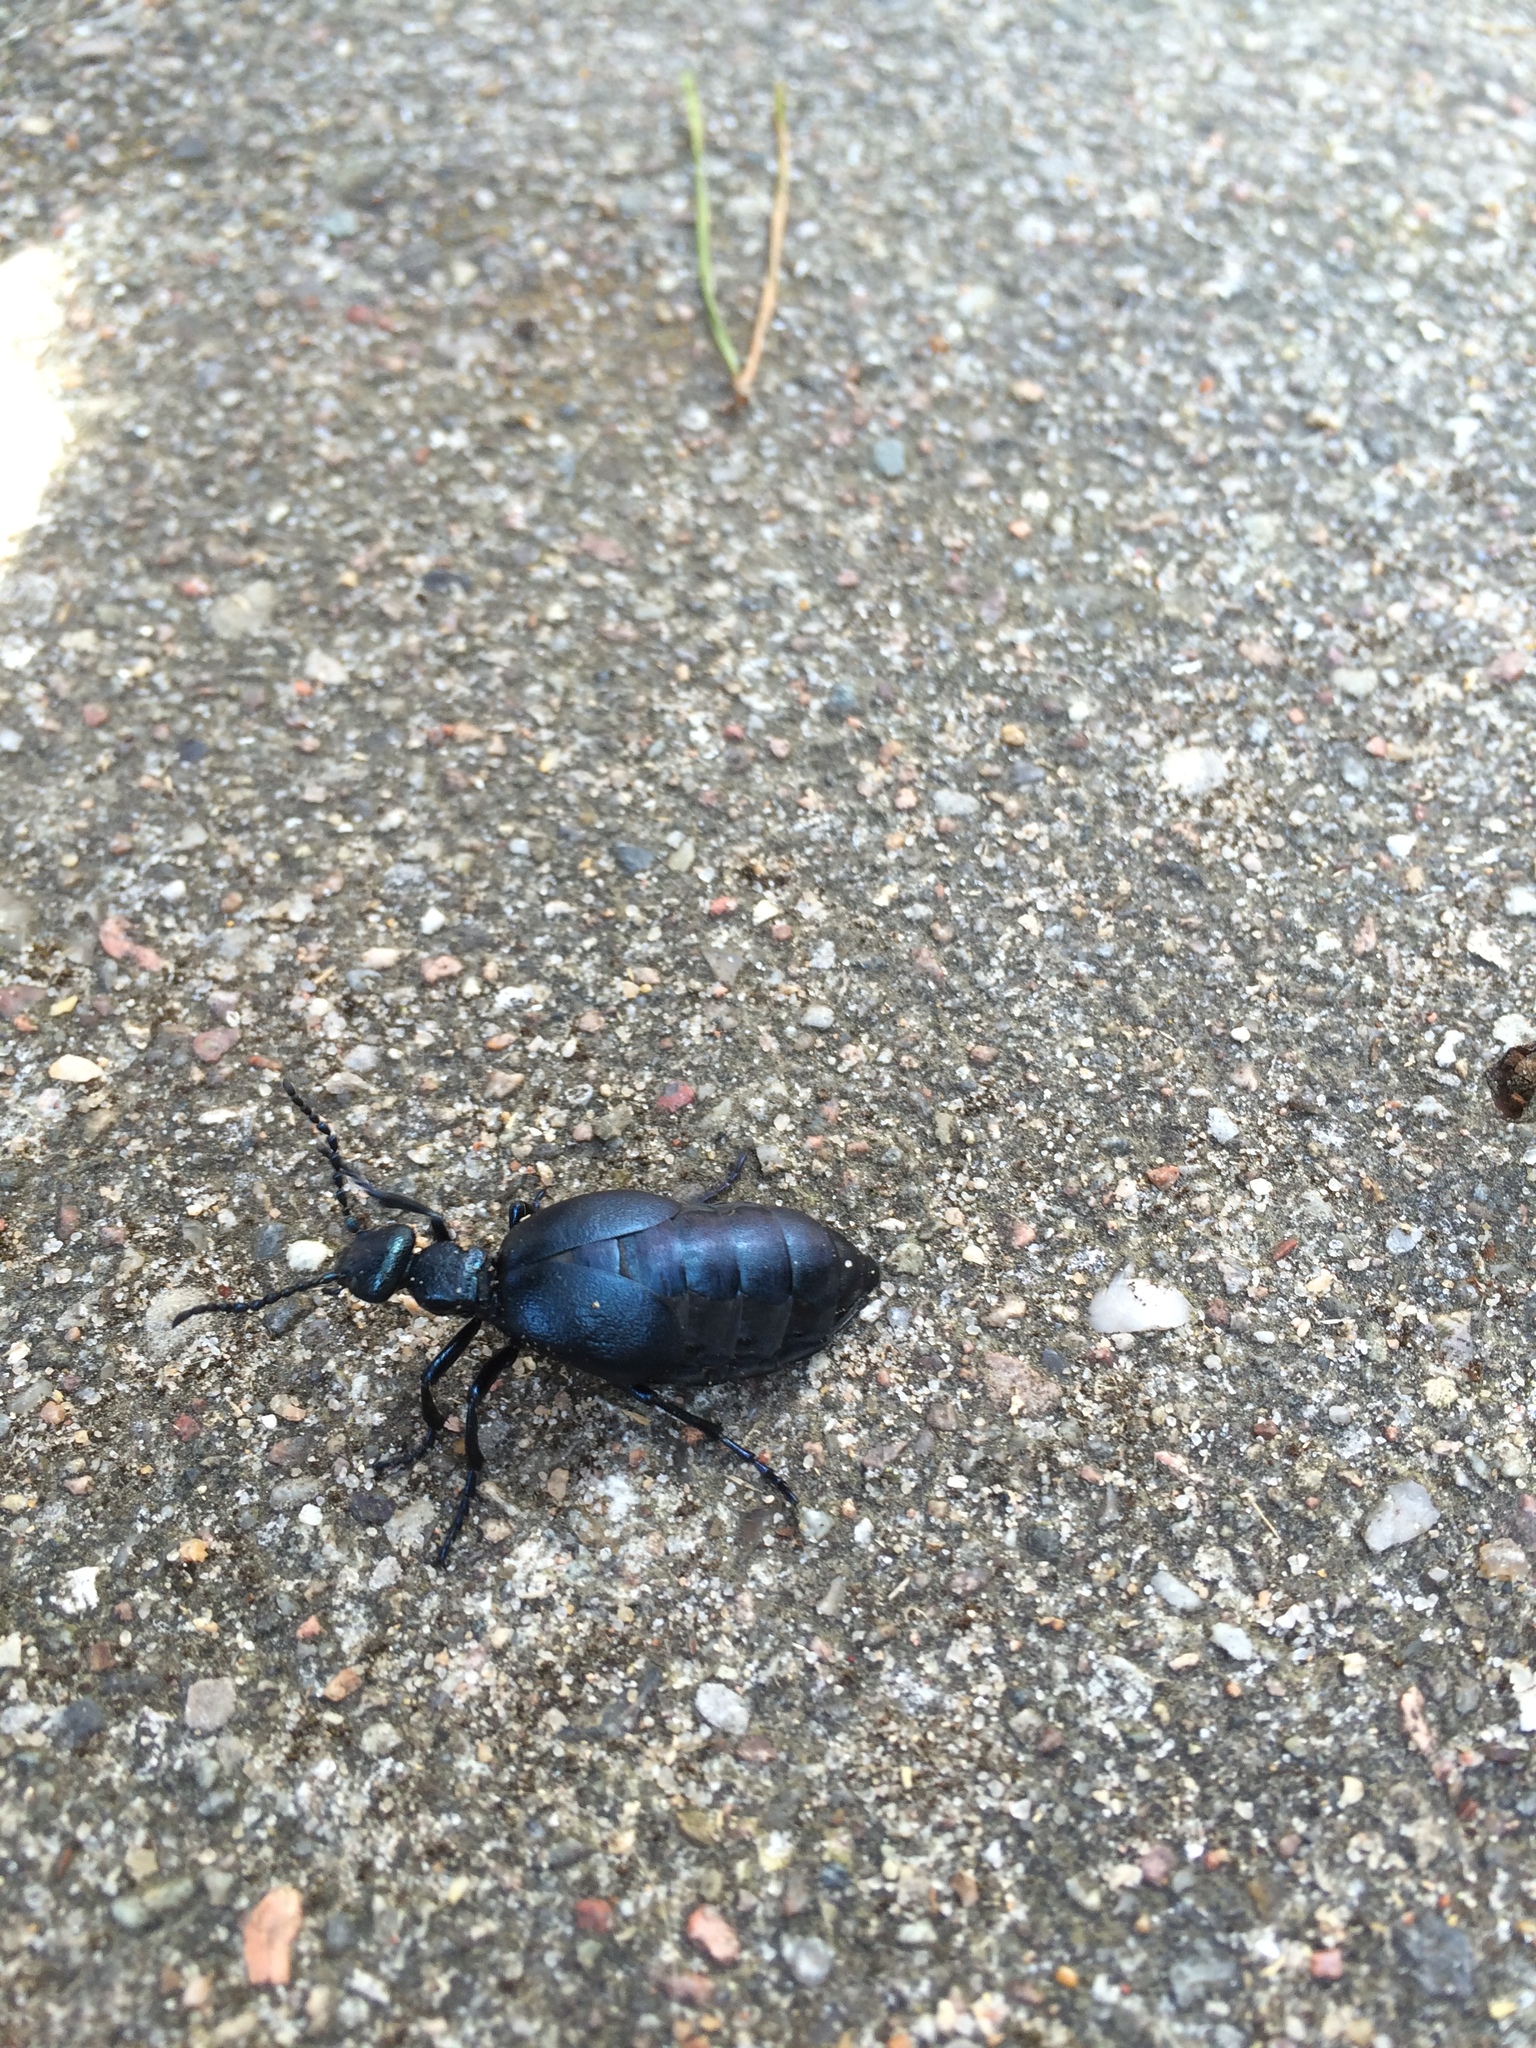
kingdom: Animalia
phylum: Arthropoda
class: Insecta
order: Coleoptera
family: Meloidae
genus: Meloe
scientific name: Meloe violaceus
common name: Violet oil-beetle
